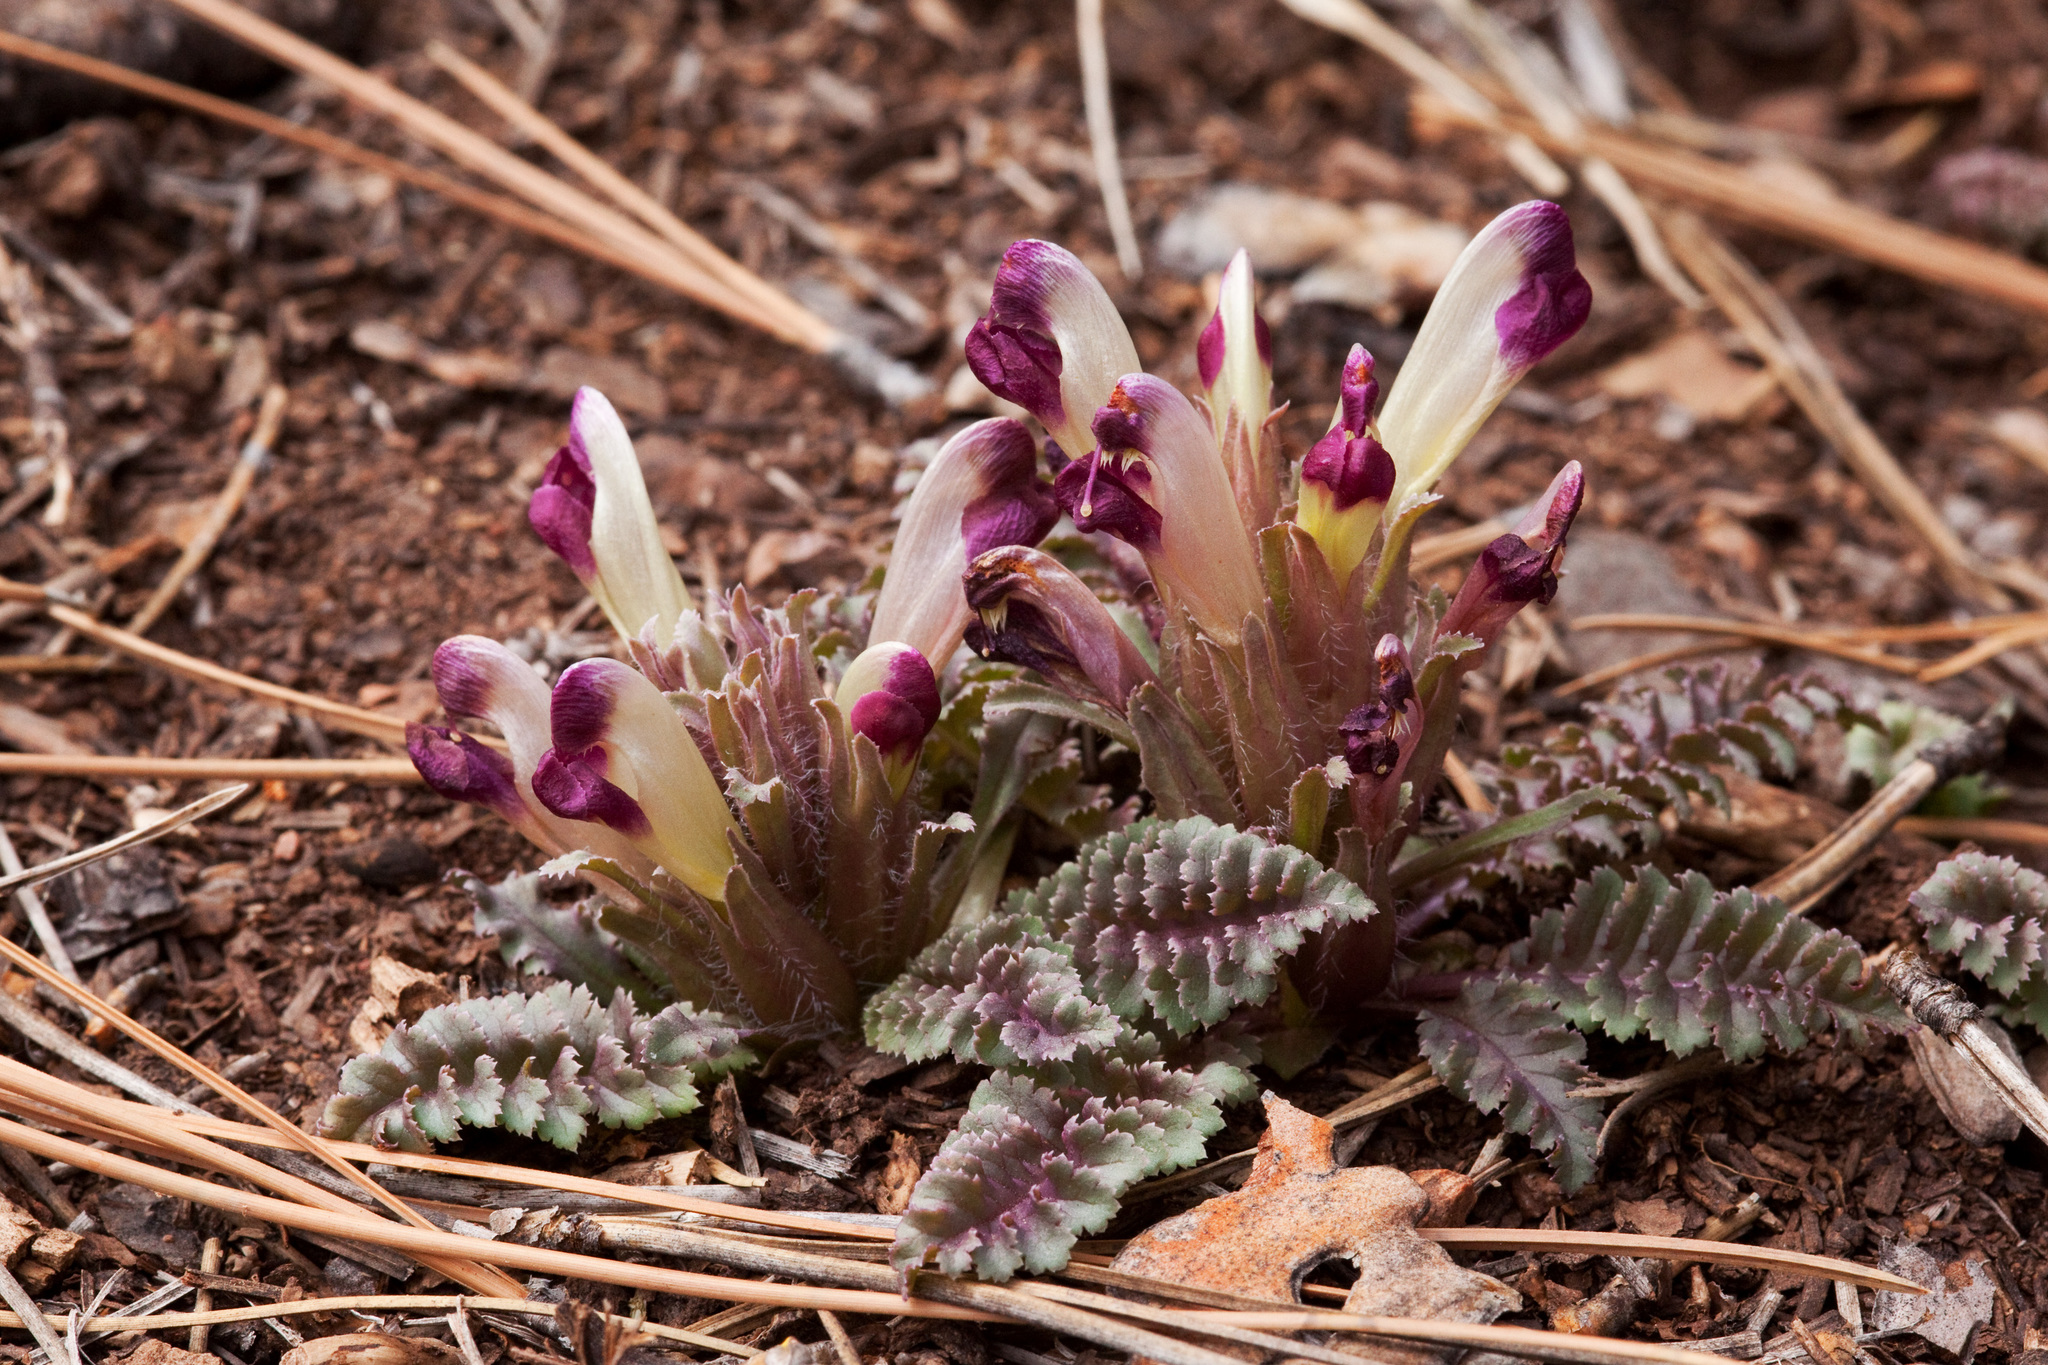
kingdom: Plantae
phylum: Tracheophyta
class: Magnoliopsida
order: Lamiales
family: Orobanchaceae
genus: Pedicularis
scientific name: Pedicularis centranthera
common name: Dwarf lousewort
